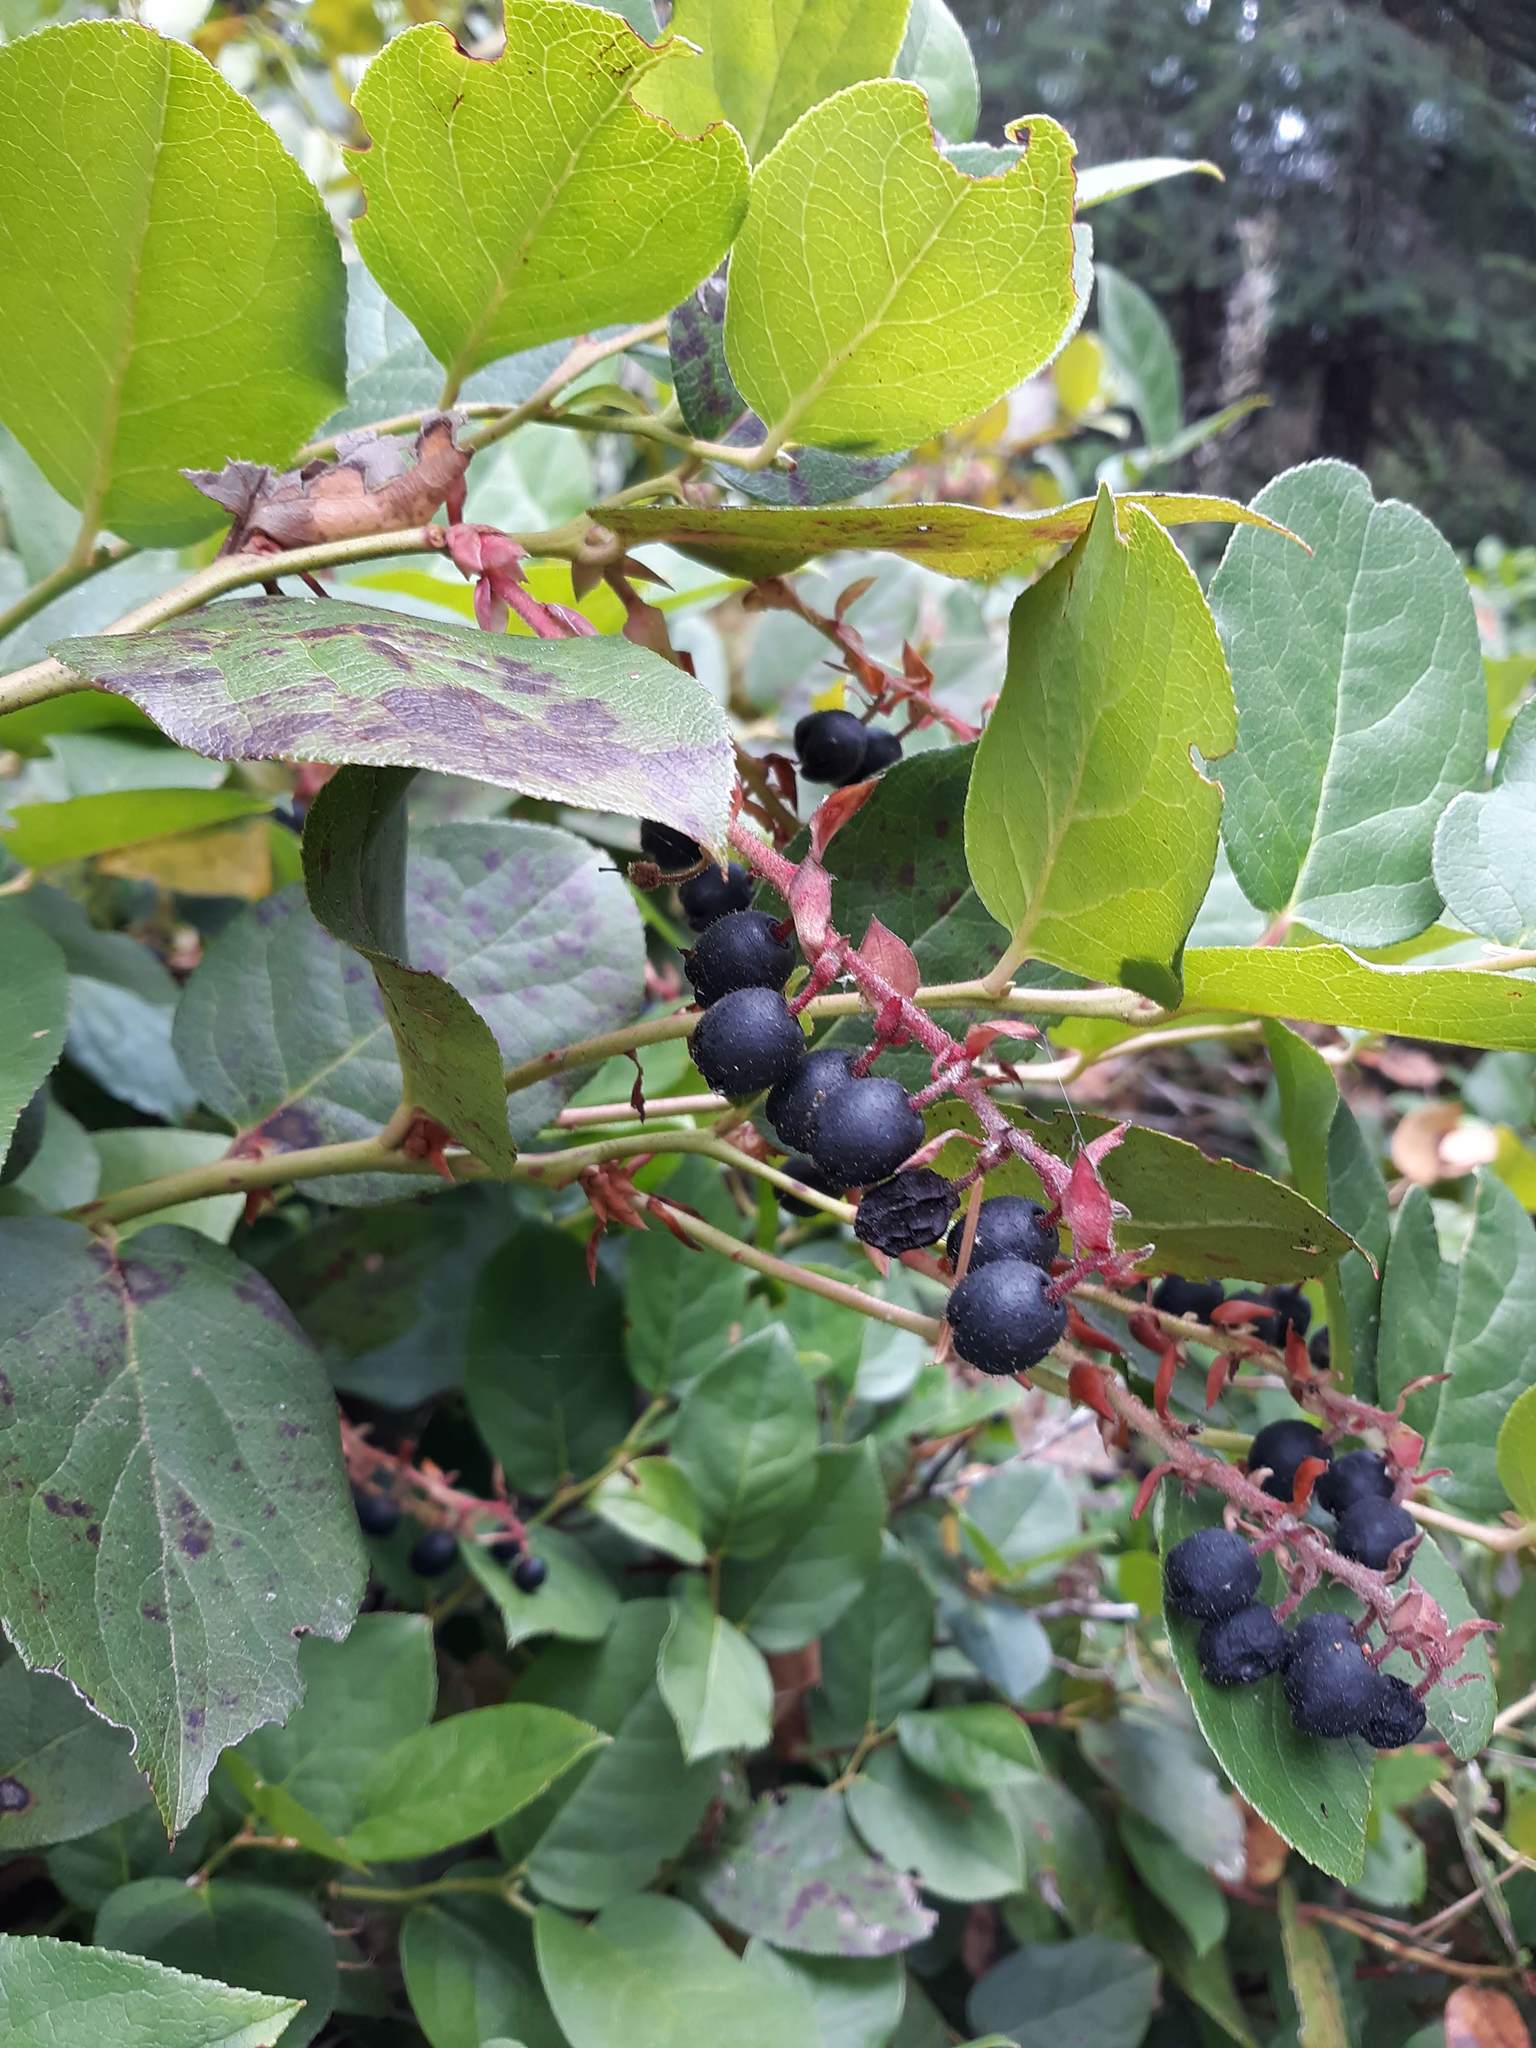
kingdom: Plantae
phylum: Tracheophyta
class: Magnoliopsida
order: Ericales
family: Ericaceae
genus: Gaultheria
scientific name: Gaultheria shallon
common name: Shallon
